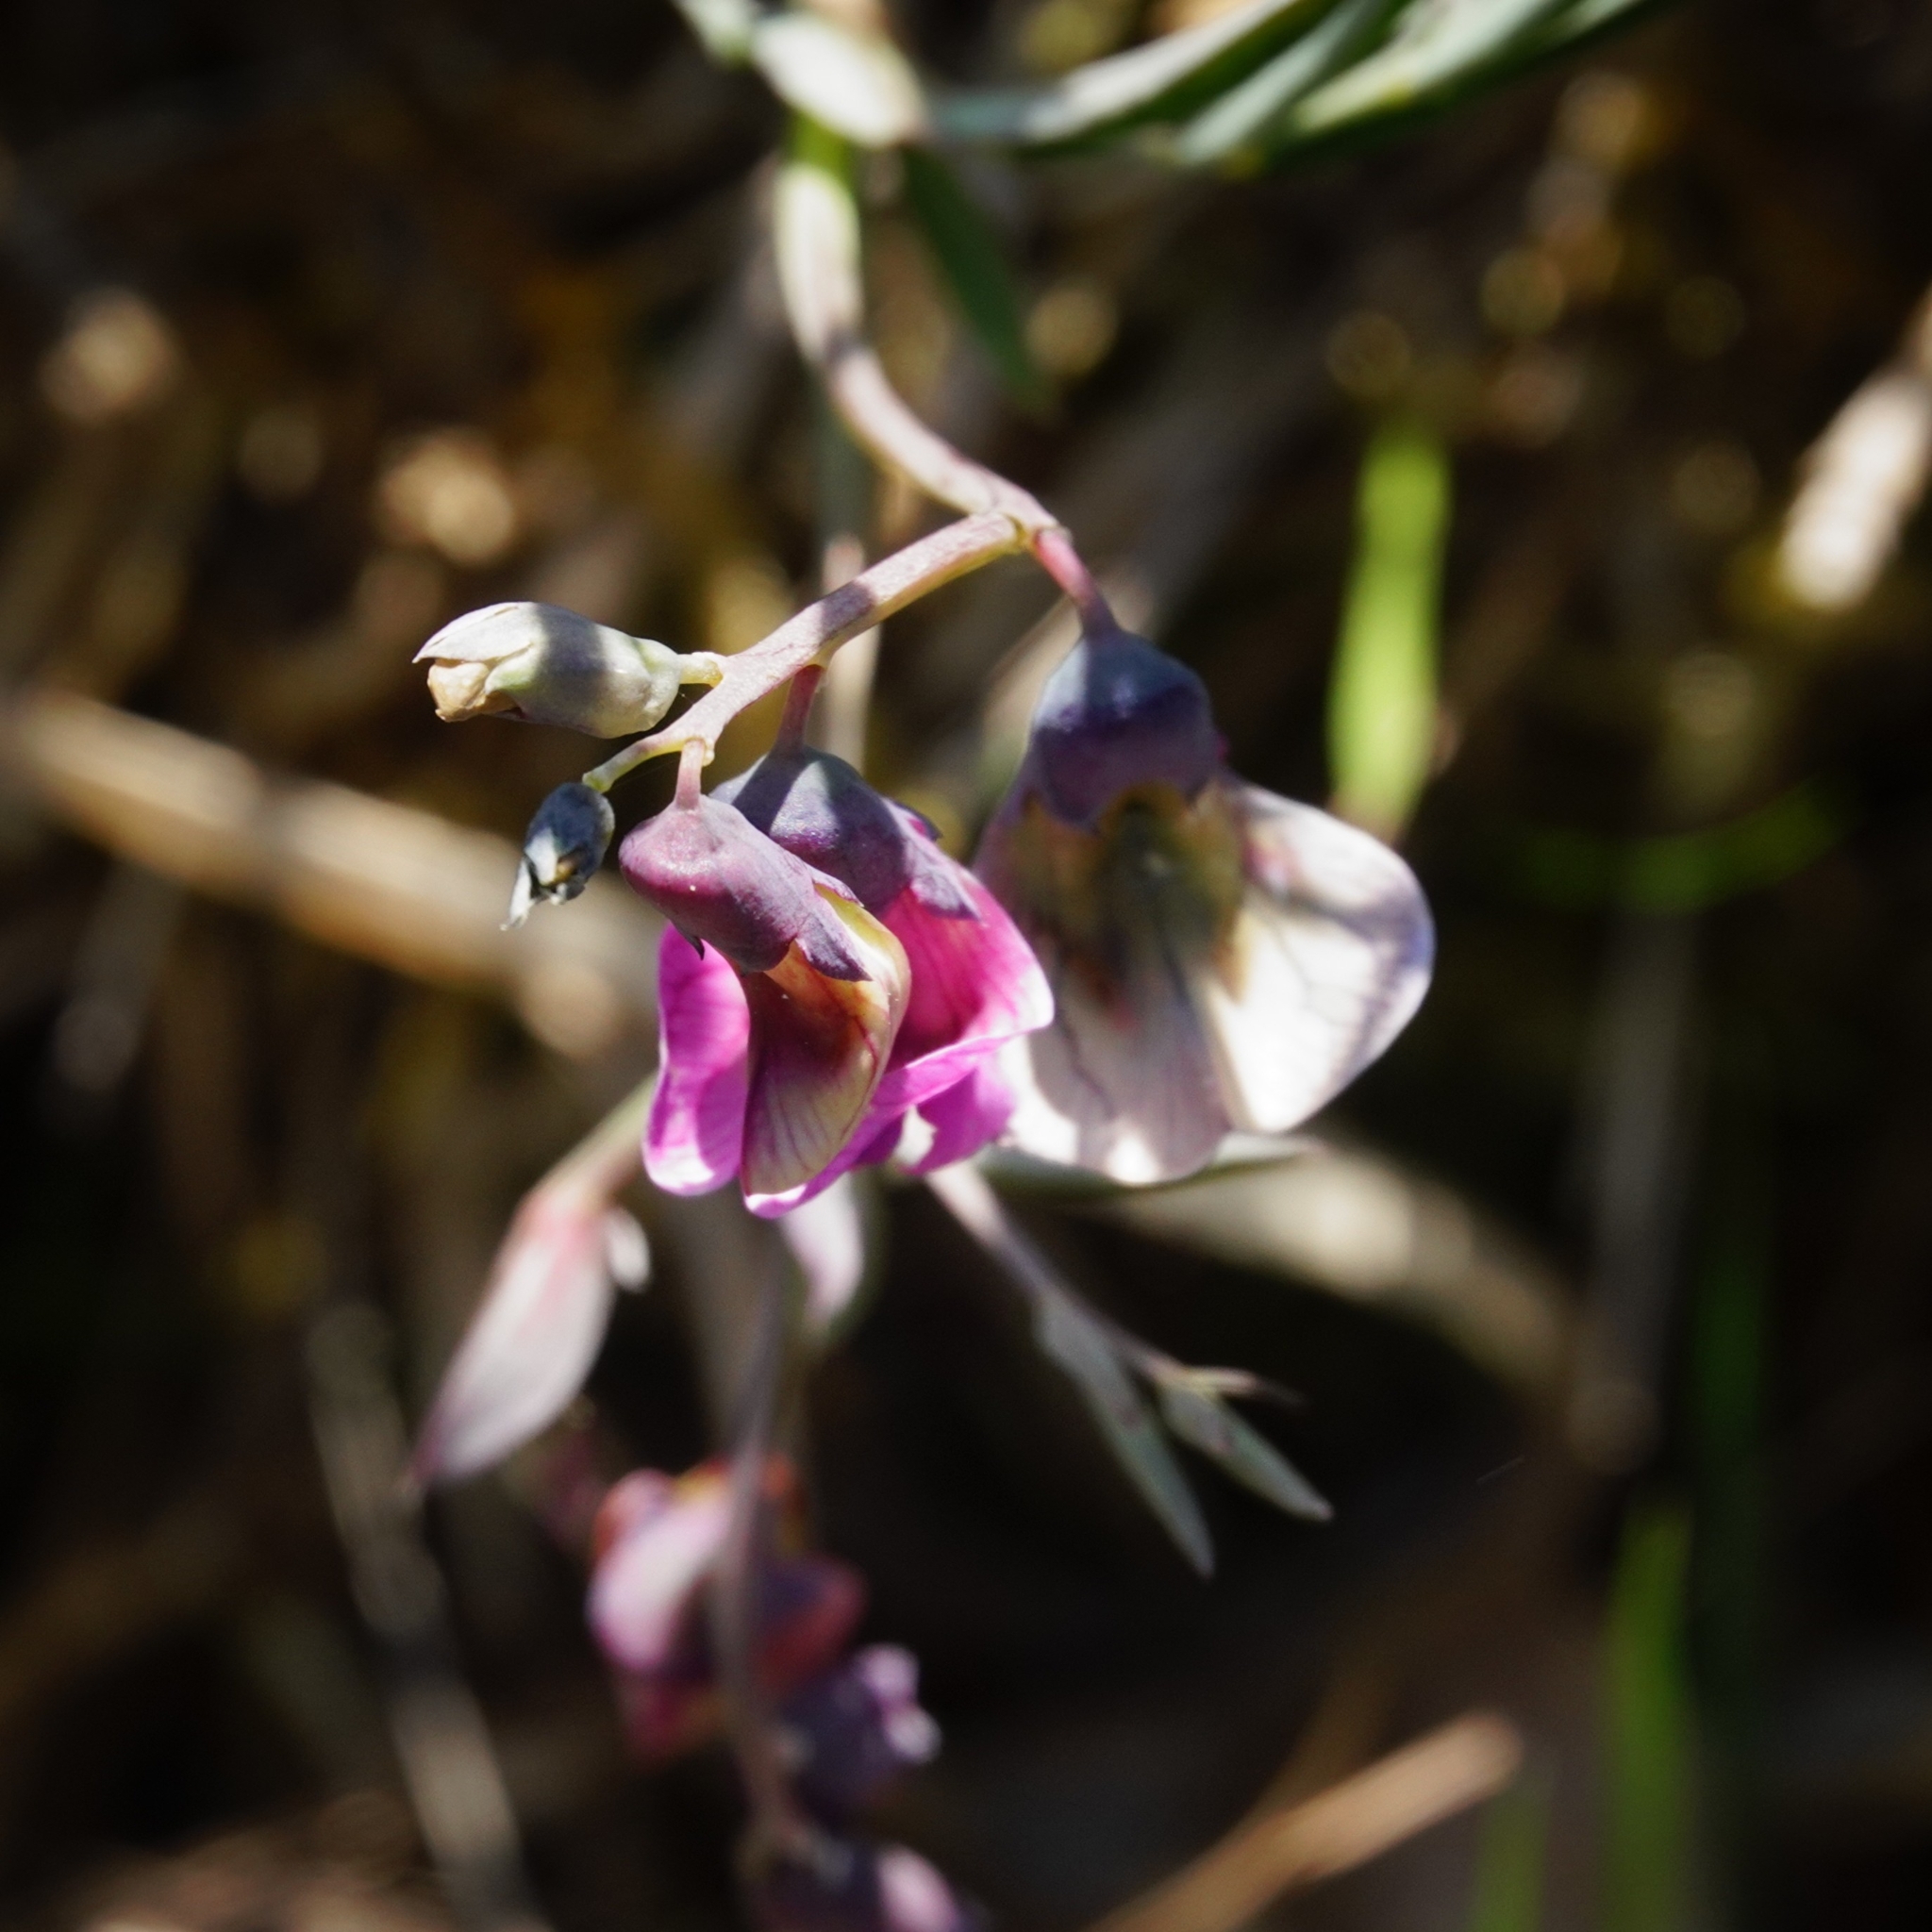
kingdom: Plantae
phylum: Tracheophyta
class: Magnoliopsida
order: Fabales
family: Fabaceae
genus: Lathyrus
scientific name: Lathyrus linifolius
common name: Bitter-vetch
